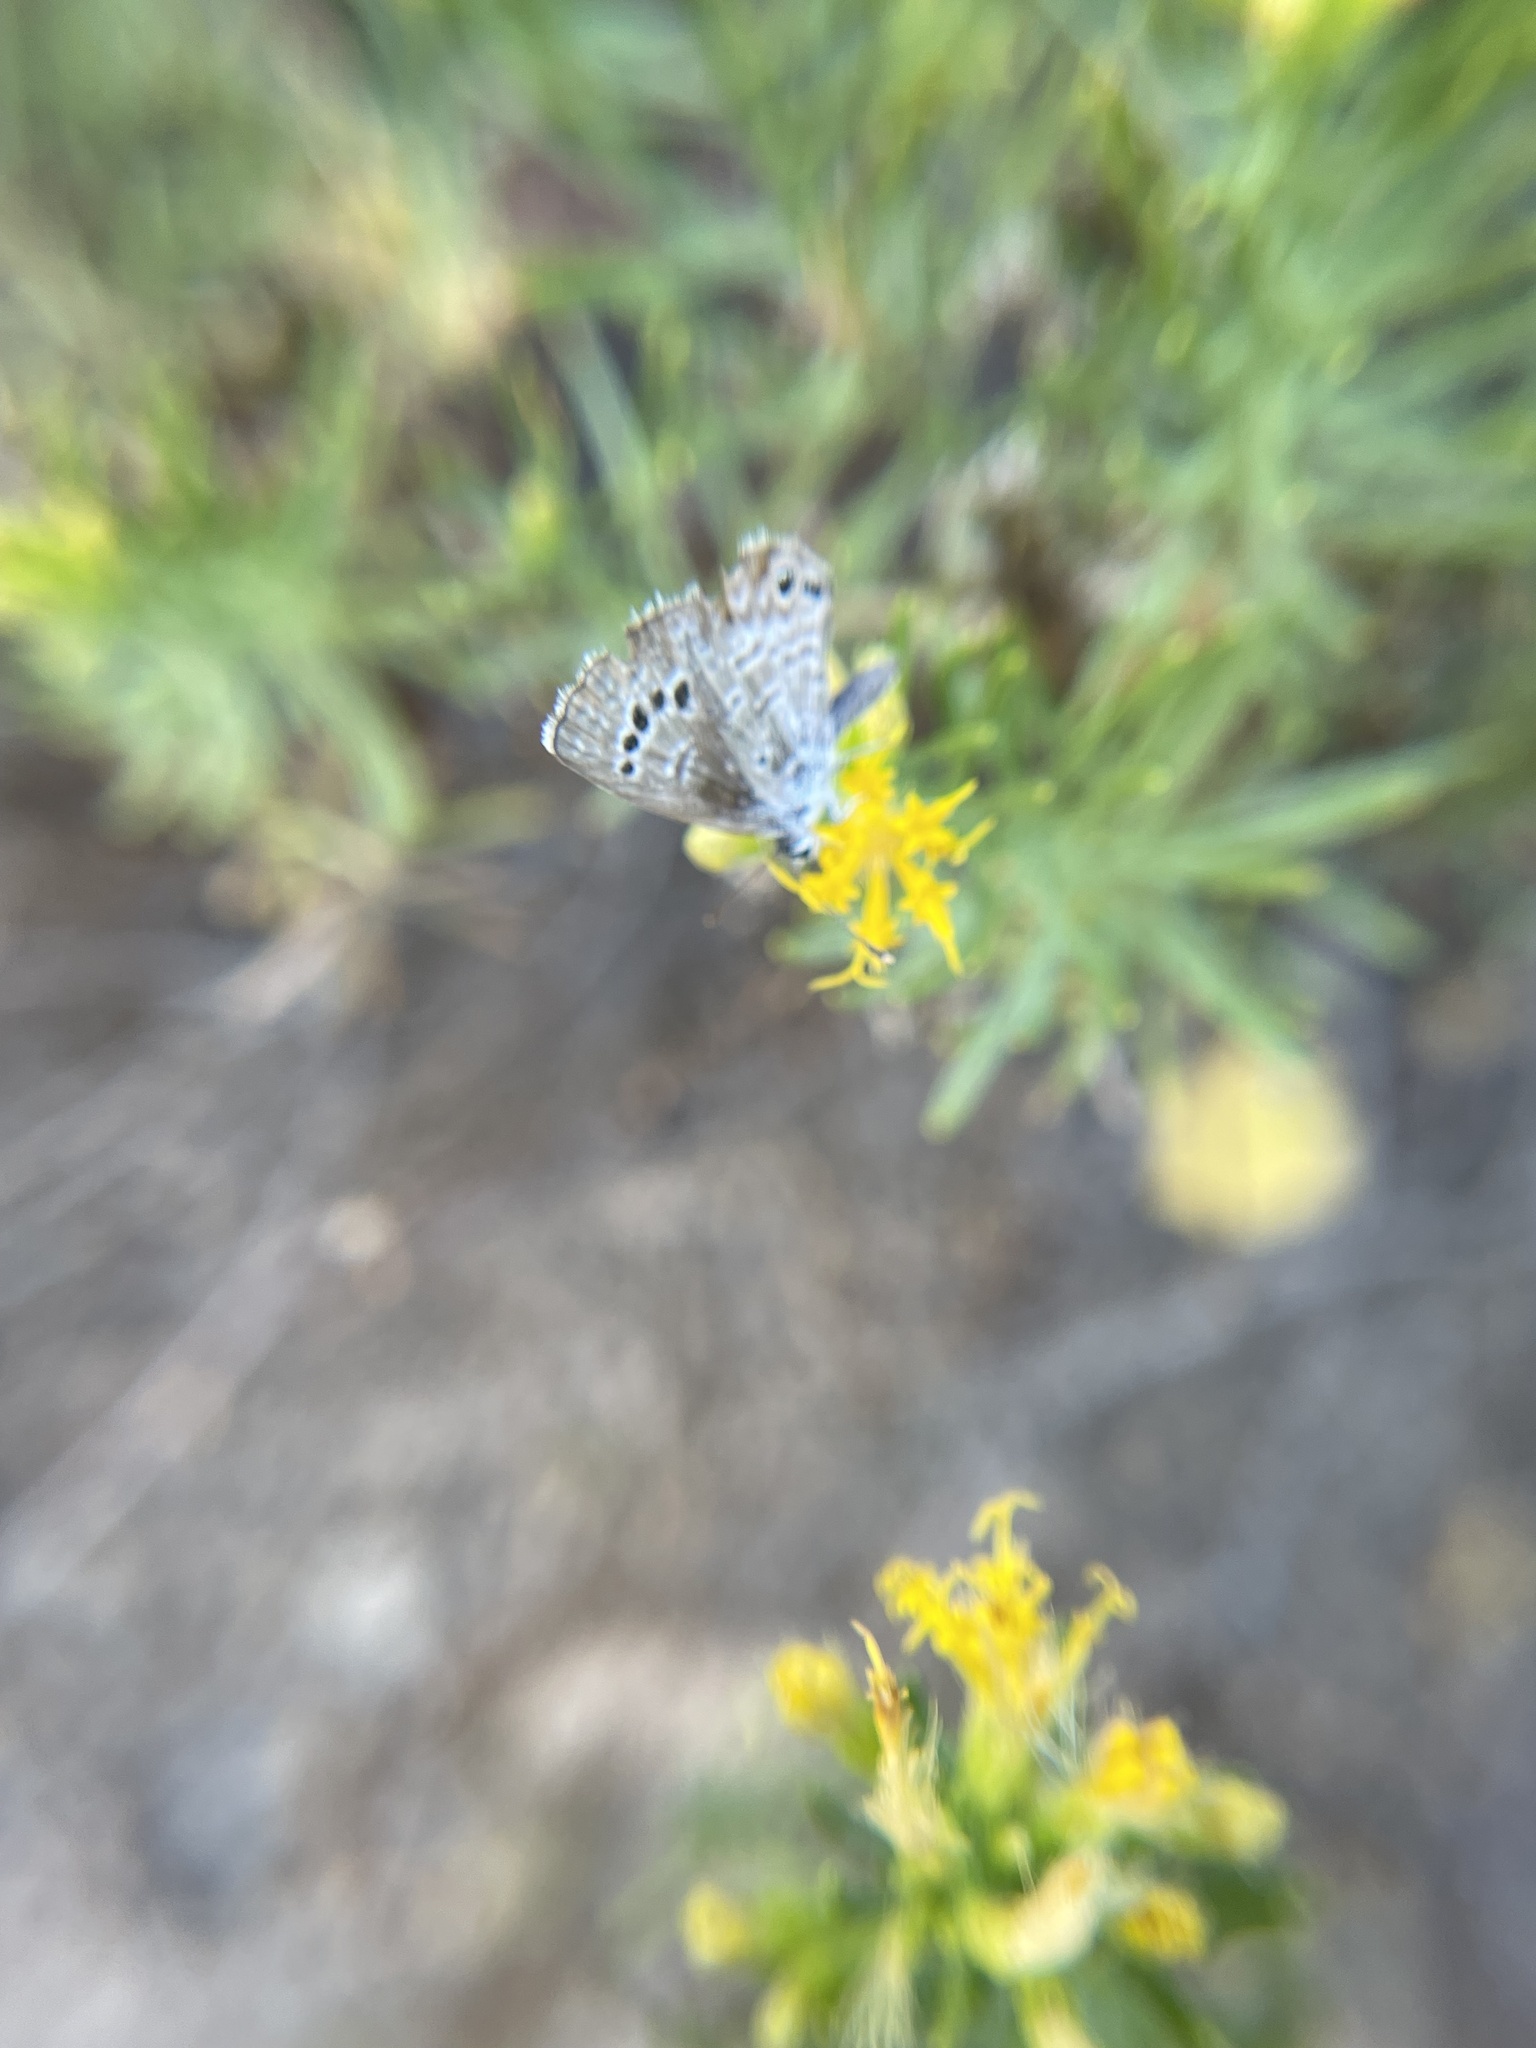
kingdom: Animalia
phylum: Arthropoda
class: Insecta
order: Lepidoptera
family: Lycaenidae
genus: Echinargus
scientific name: Echinargus isola
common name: Reakirt's blue
